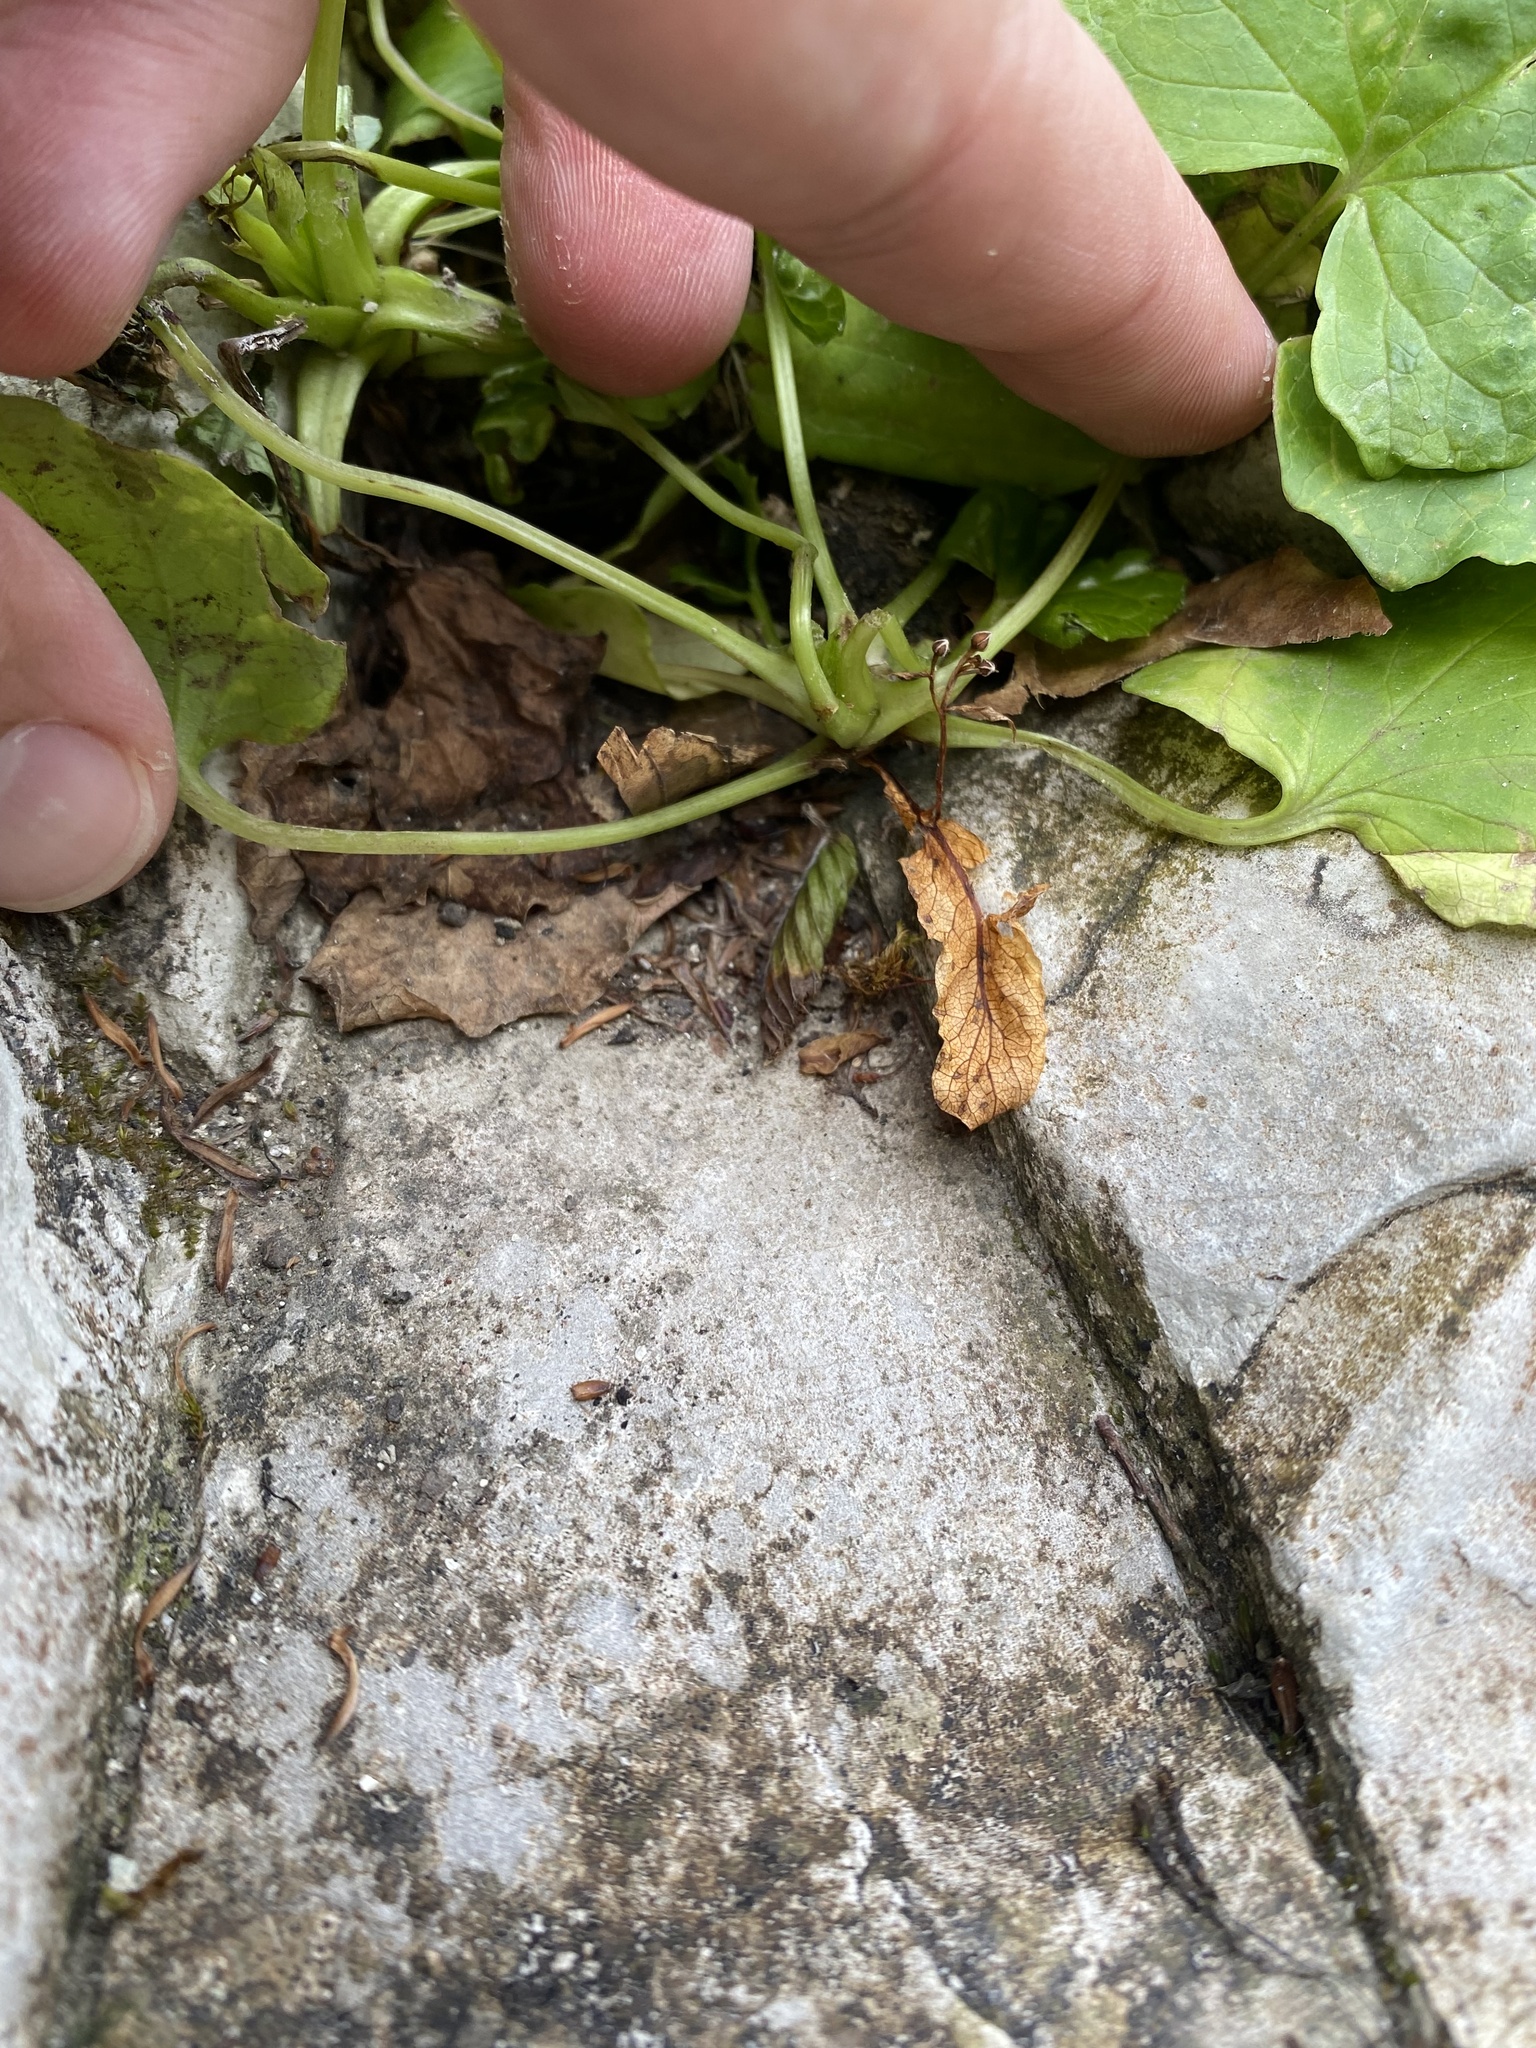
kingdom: Plantae
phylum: Tracheophyta
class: Magnoliopsida
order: Asterales
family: Asteraceae
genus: Tussilago
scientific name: Tussilago farfara
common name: Coltsfoot
